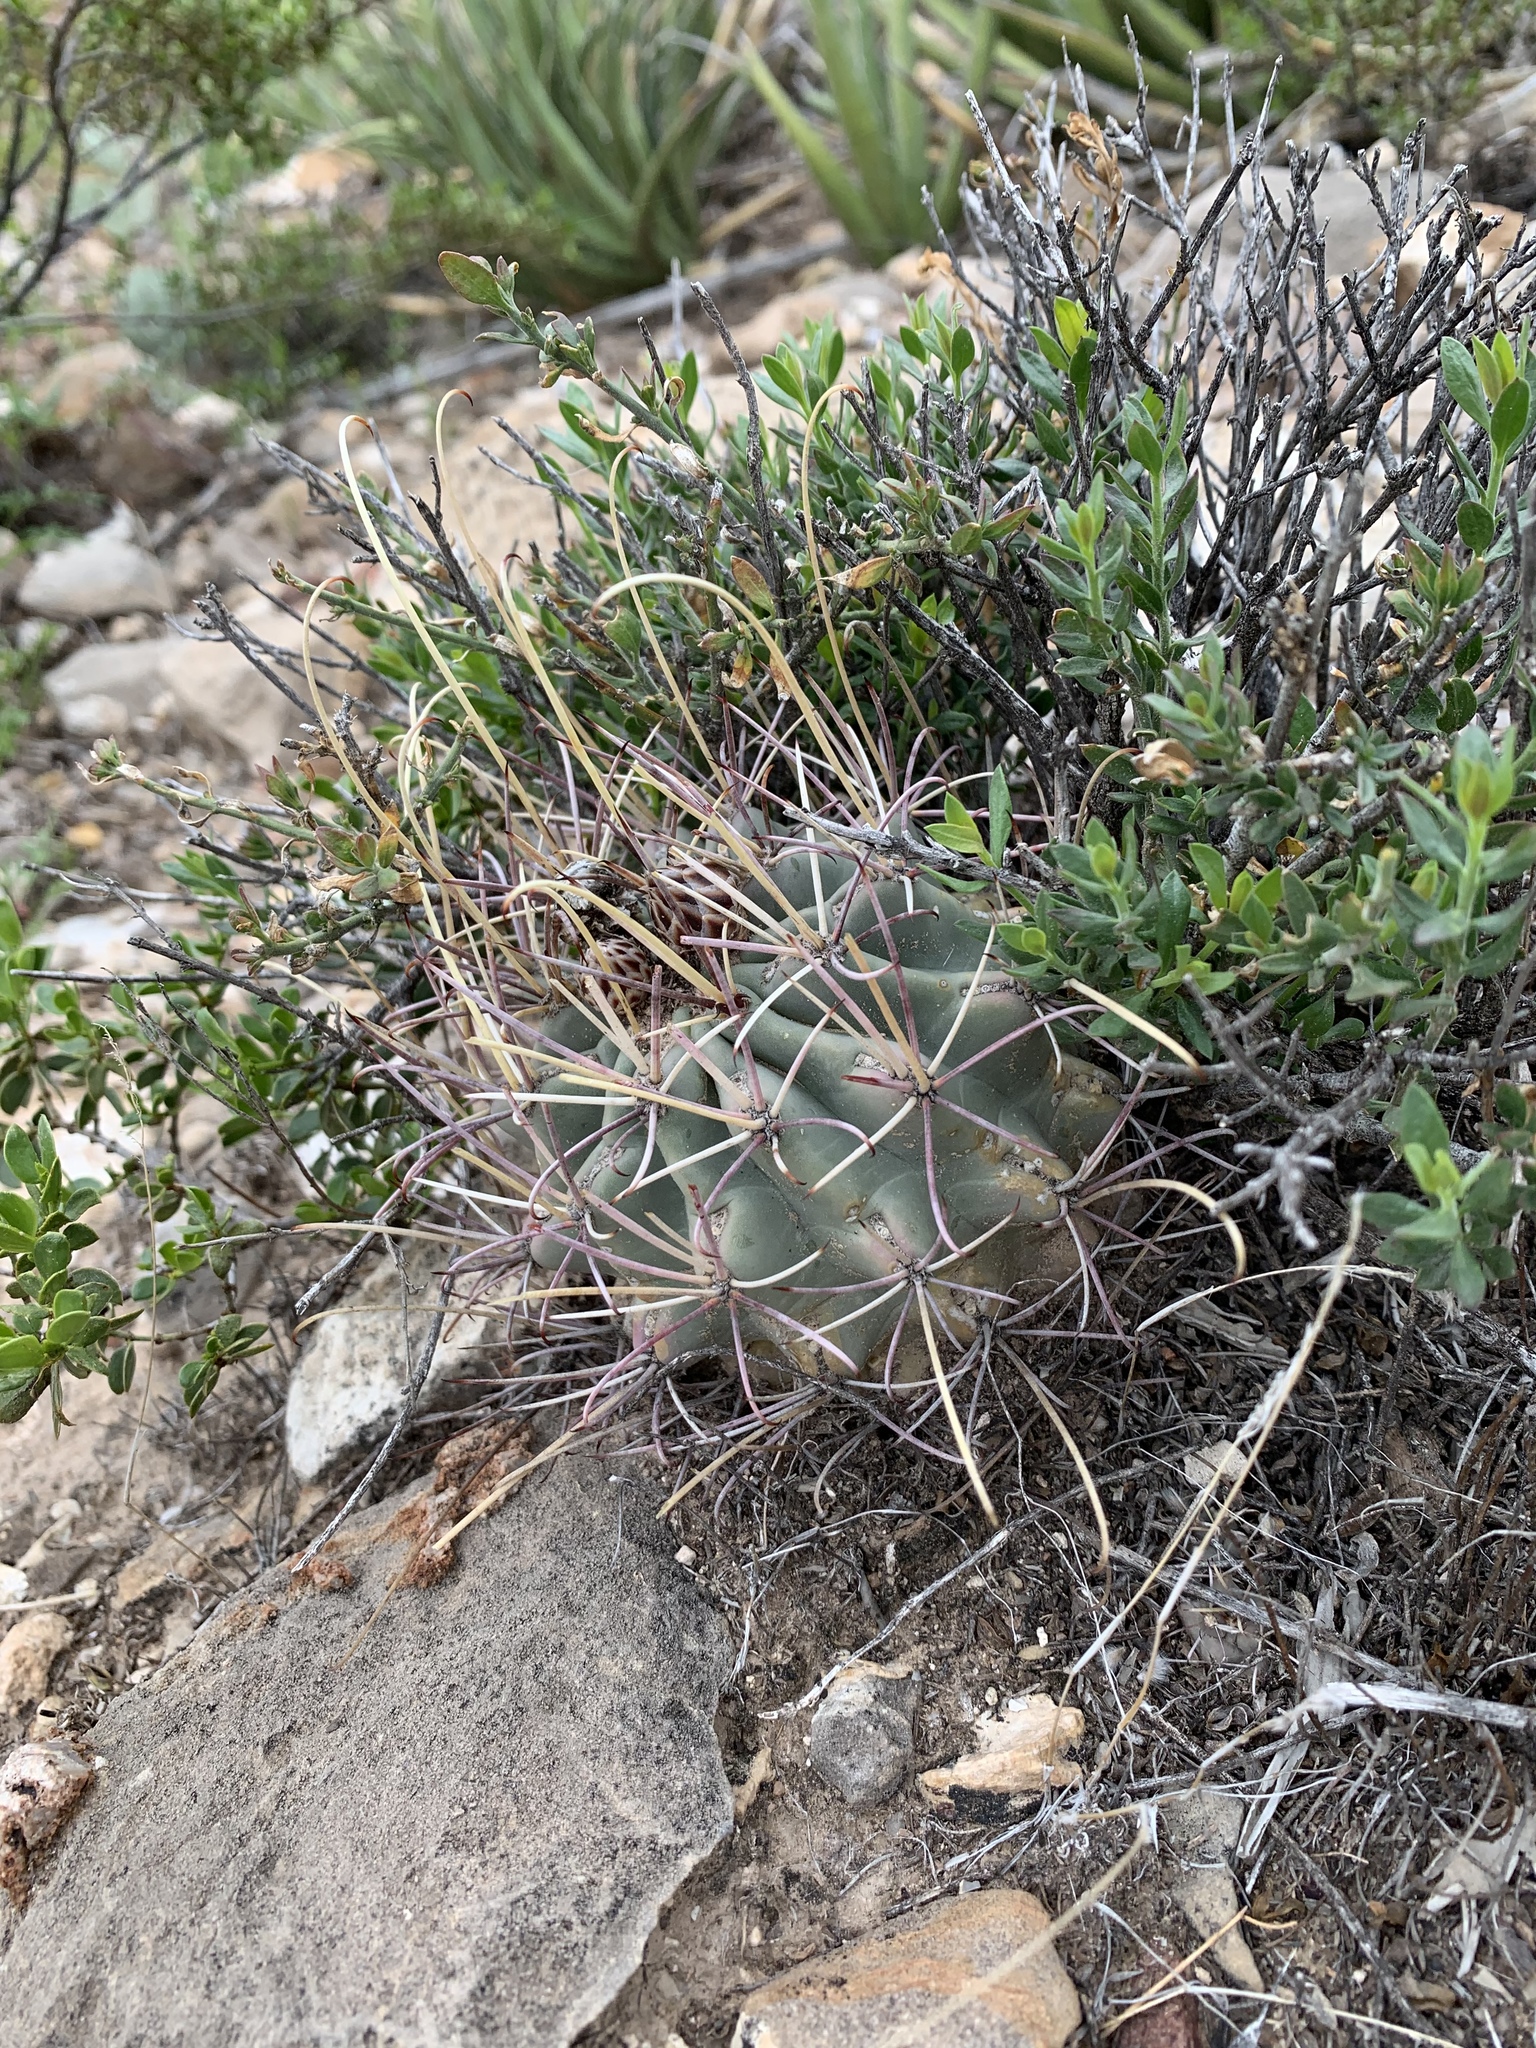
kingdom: Plantae
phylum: Tracheophyta
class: Magnoliopsida
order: Caryophyllales
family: Cactaceae
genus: Ferocactus
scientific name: Ferocactus uncinatus
